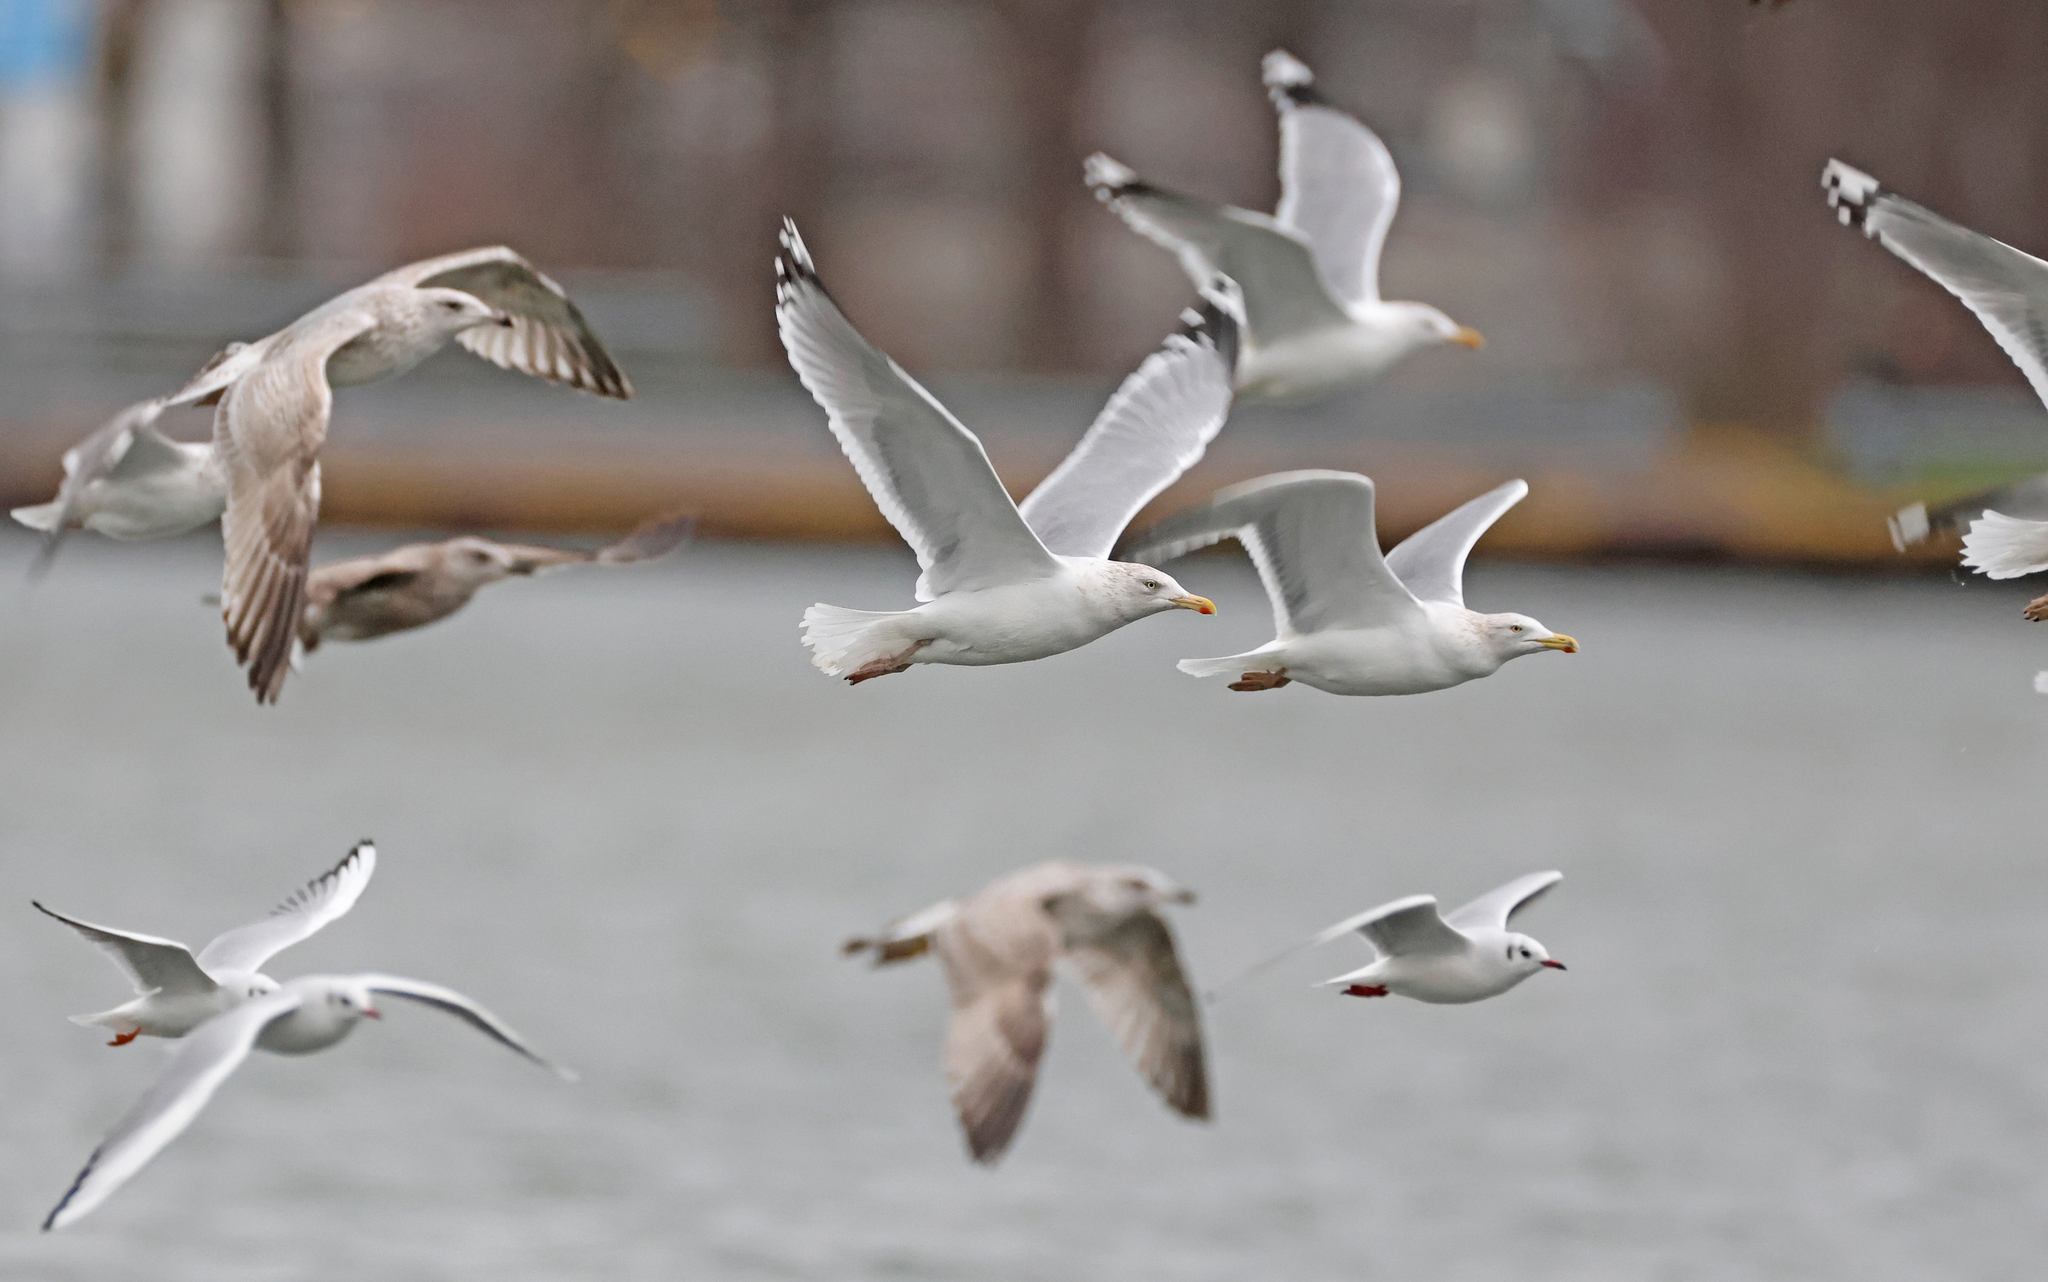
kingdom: Animalia
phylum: Chordata
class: Aves
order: Charadriiformes
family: Laridae
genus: Larus
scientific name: Larus argentatus
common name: Herring gull
